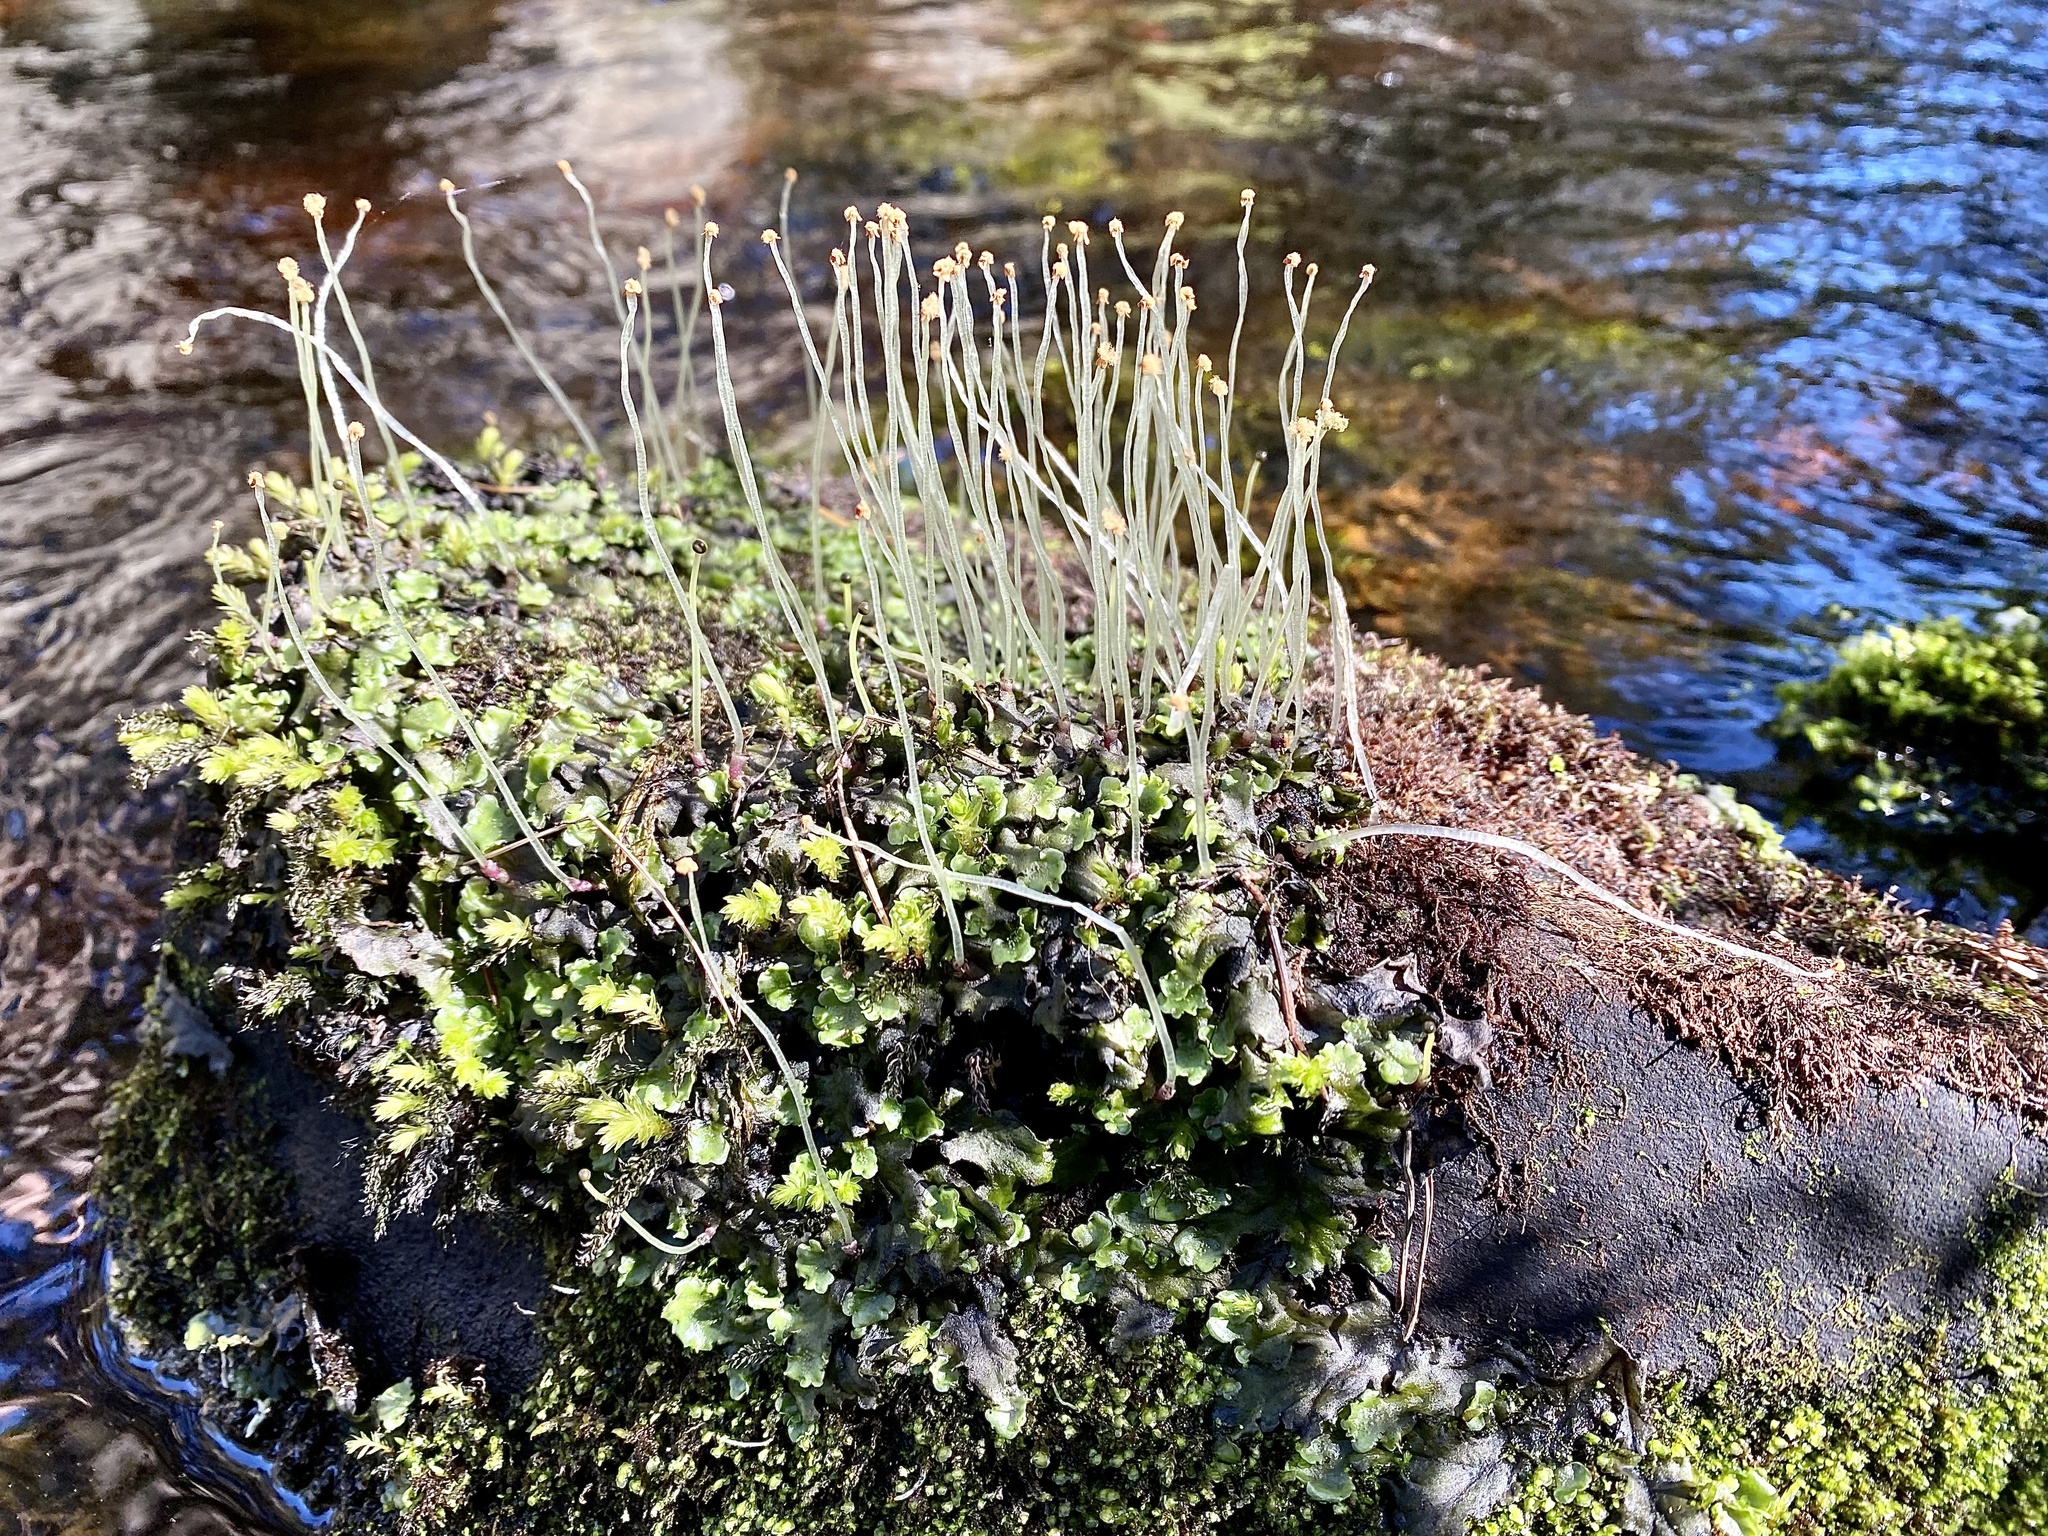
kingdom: Plantae
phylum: Marchantiophyta
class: Jungermanniopsida
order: Pelliales
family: Pelliaceae
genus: Pellia
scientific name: Pellia epiphylla
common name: Common pellia
